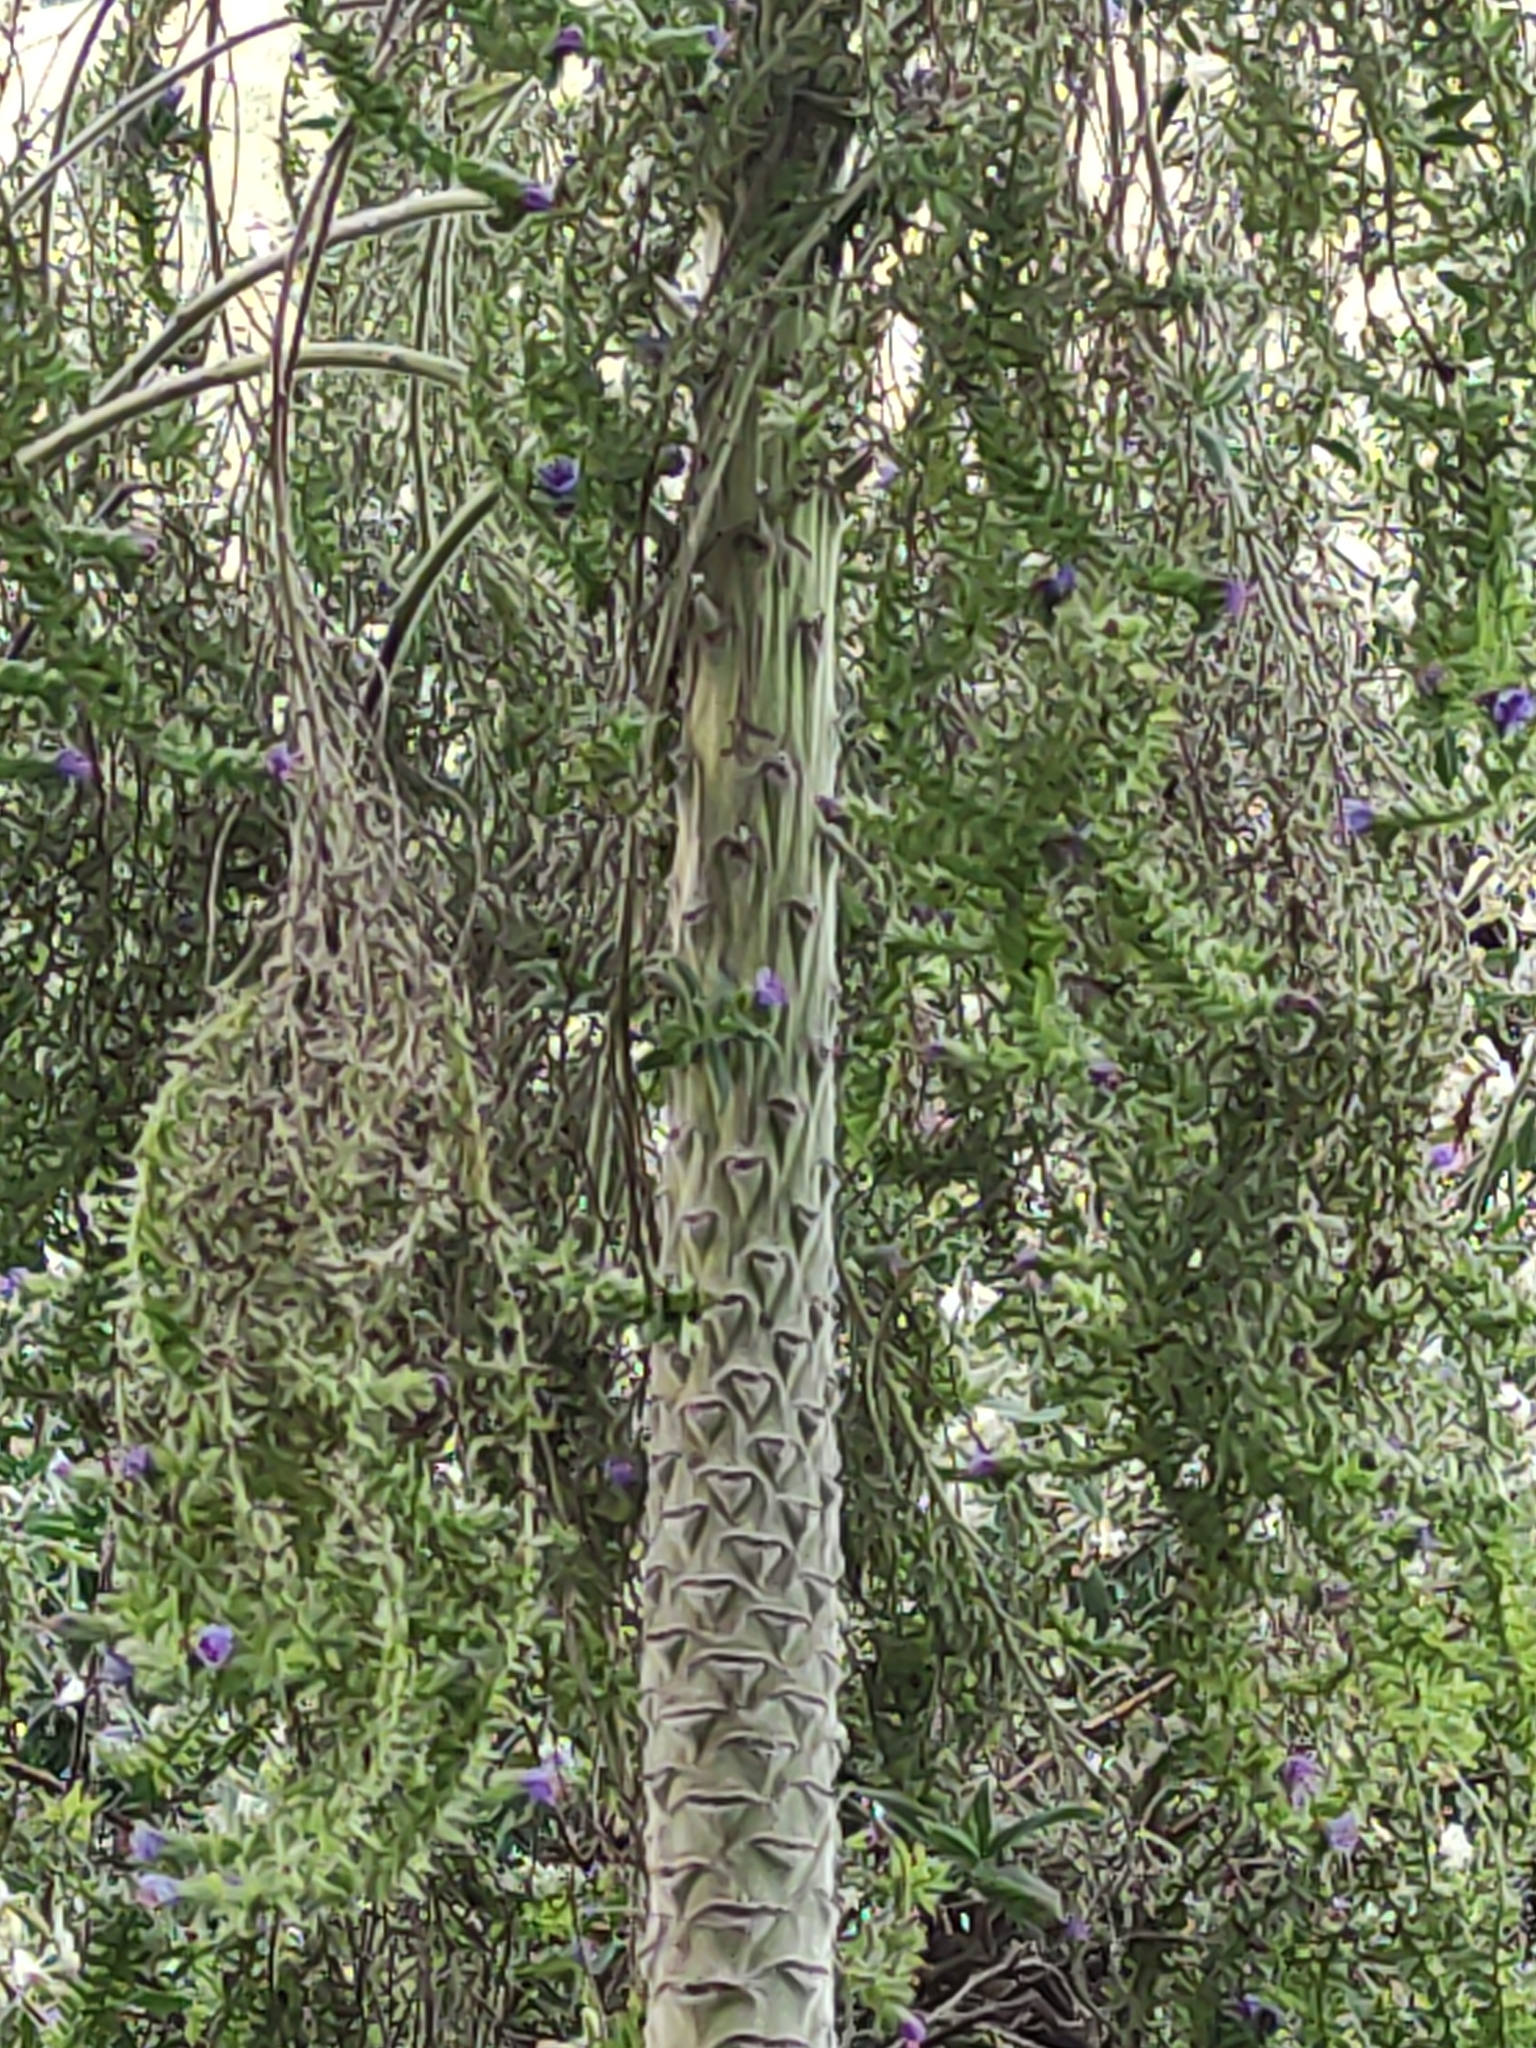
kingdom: Plantae
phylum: Tracheophyta
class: Magnoliopsida
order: Boraginales
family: Boraginaceae
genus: Echium
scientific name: Echium pininana
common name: Giant viper's-bugloss
